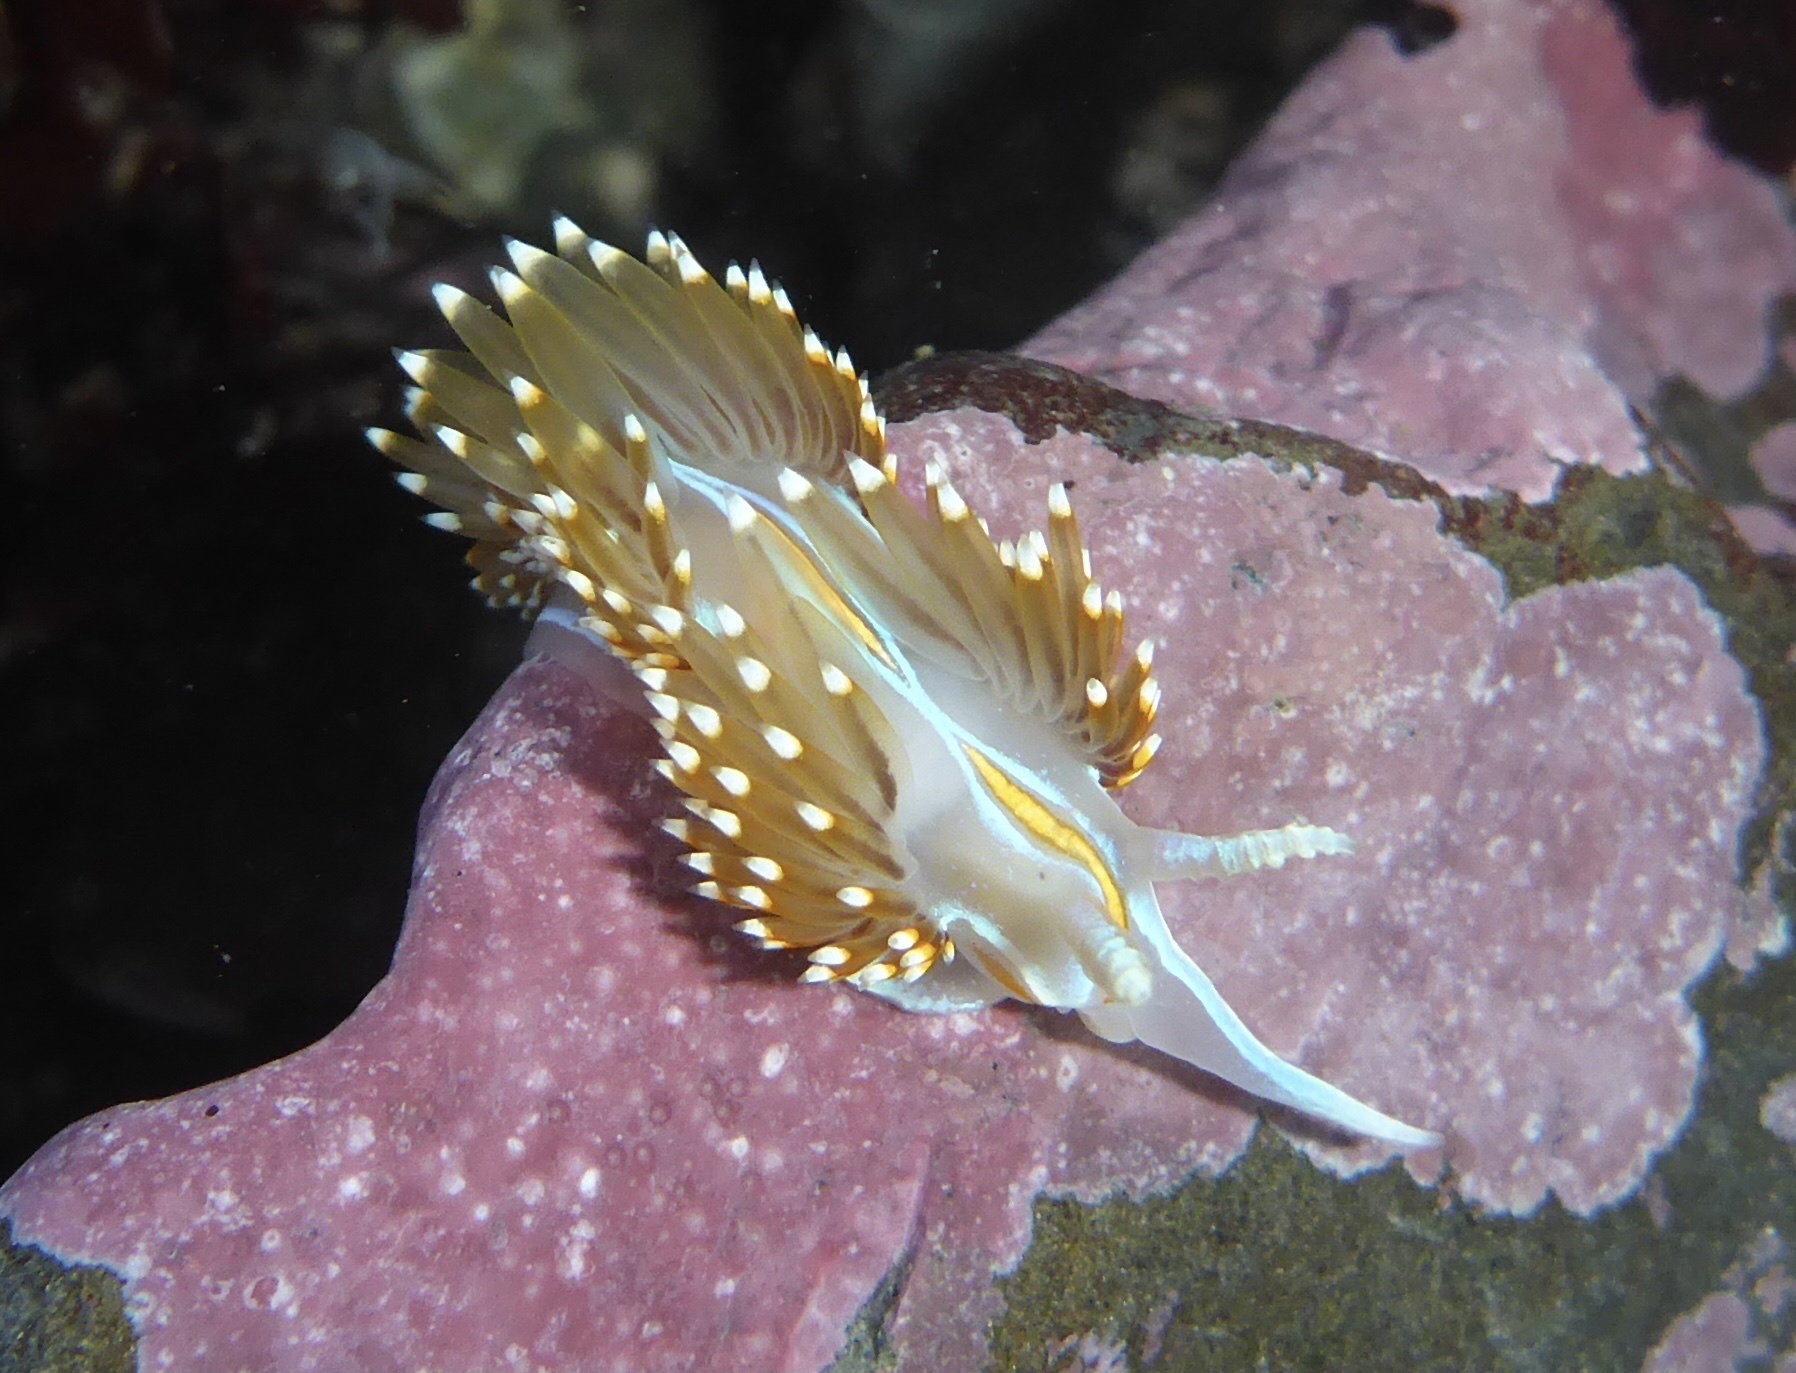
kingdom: Animalia
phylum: Mollusca
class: Gastropoda
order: Nudibranchia
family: Myrrhinidae
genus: Hermissenda
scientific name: Hermissenda opalescens
